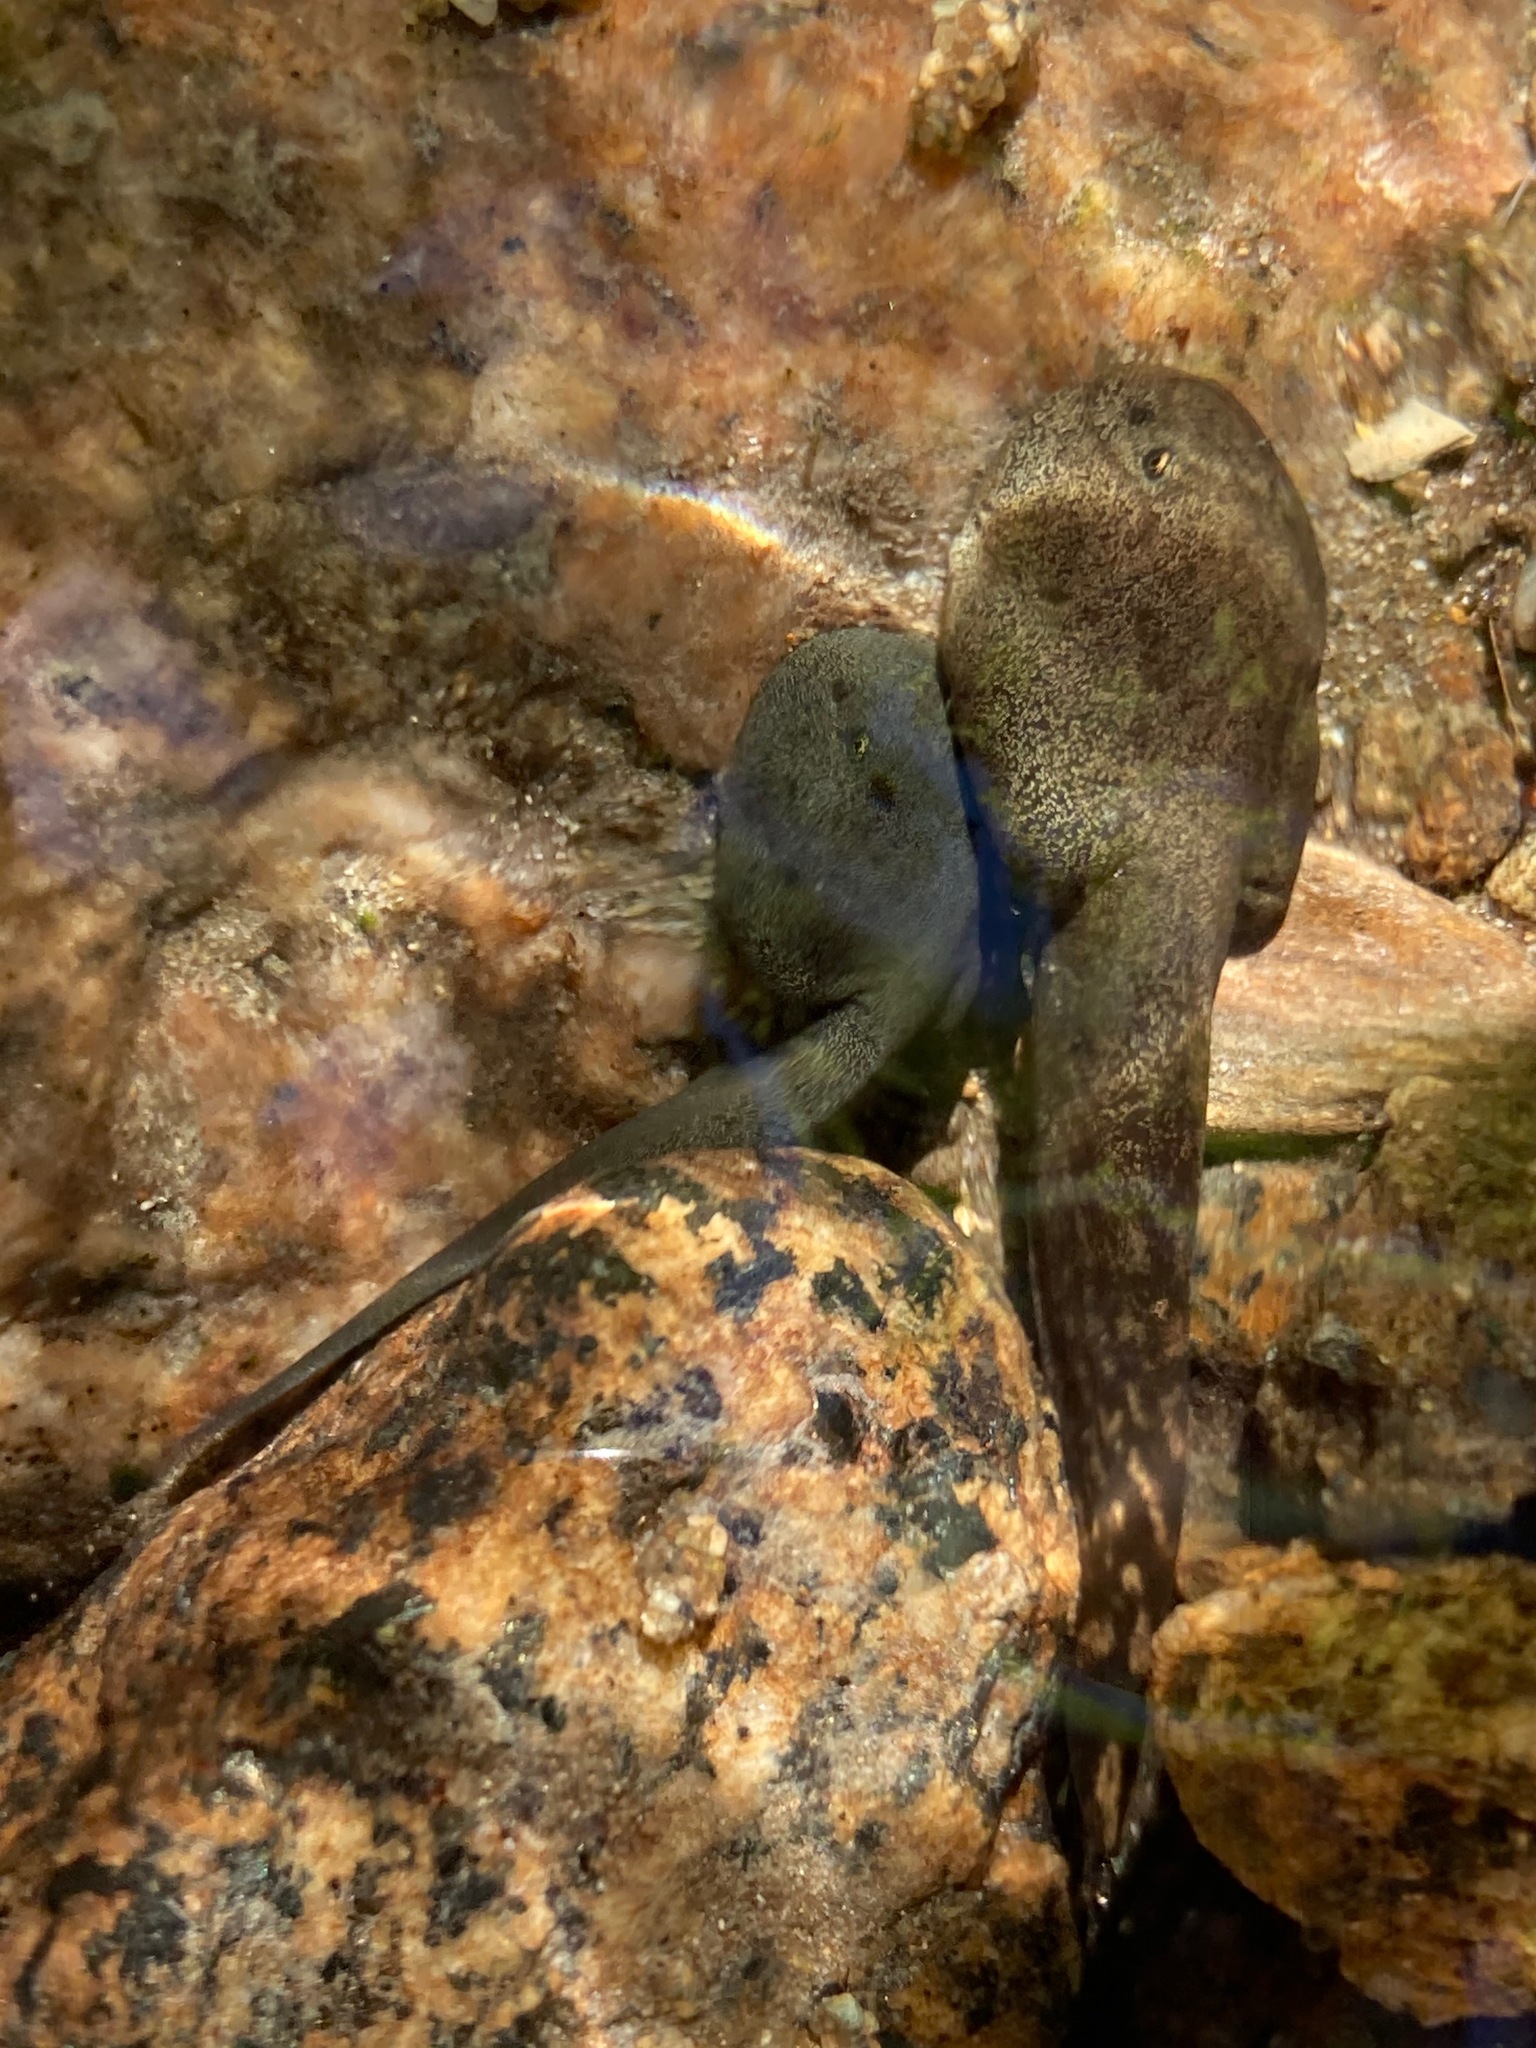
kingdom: Animalia
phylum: Chordata
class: Amphibia
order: Anura
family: Ascaphidae
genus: Ascaphus
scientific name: Ascaphus truei
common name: Tailed frog
